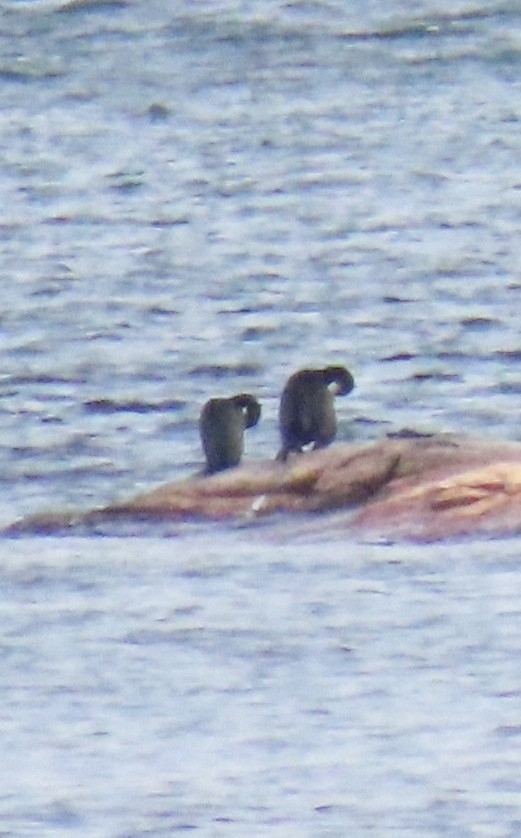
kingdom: Animalia
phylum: Chordata
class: Aves
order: Suliformes
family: Phalacrocoracidae
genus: Phalacrocorax
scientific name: Phalacrocorax auritus
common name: Double-crested cormorant
